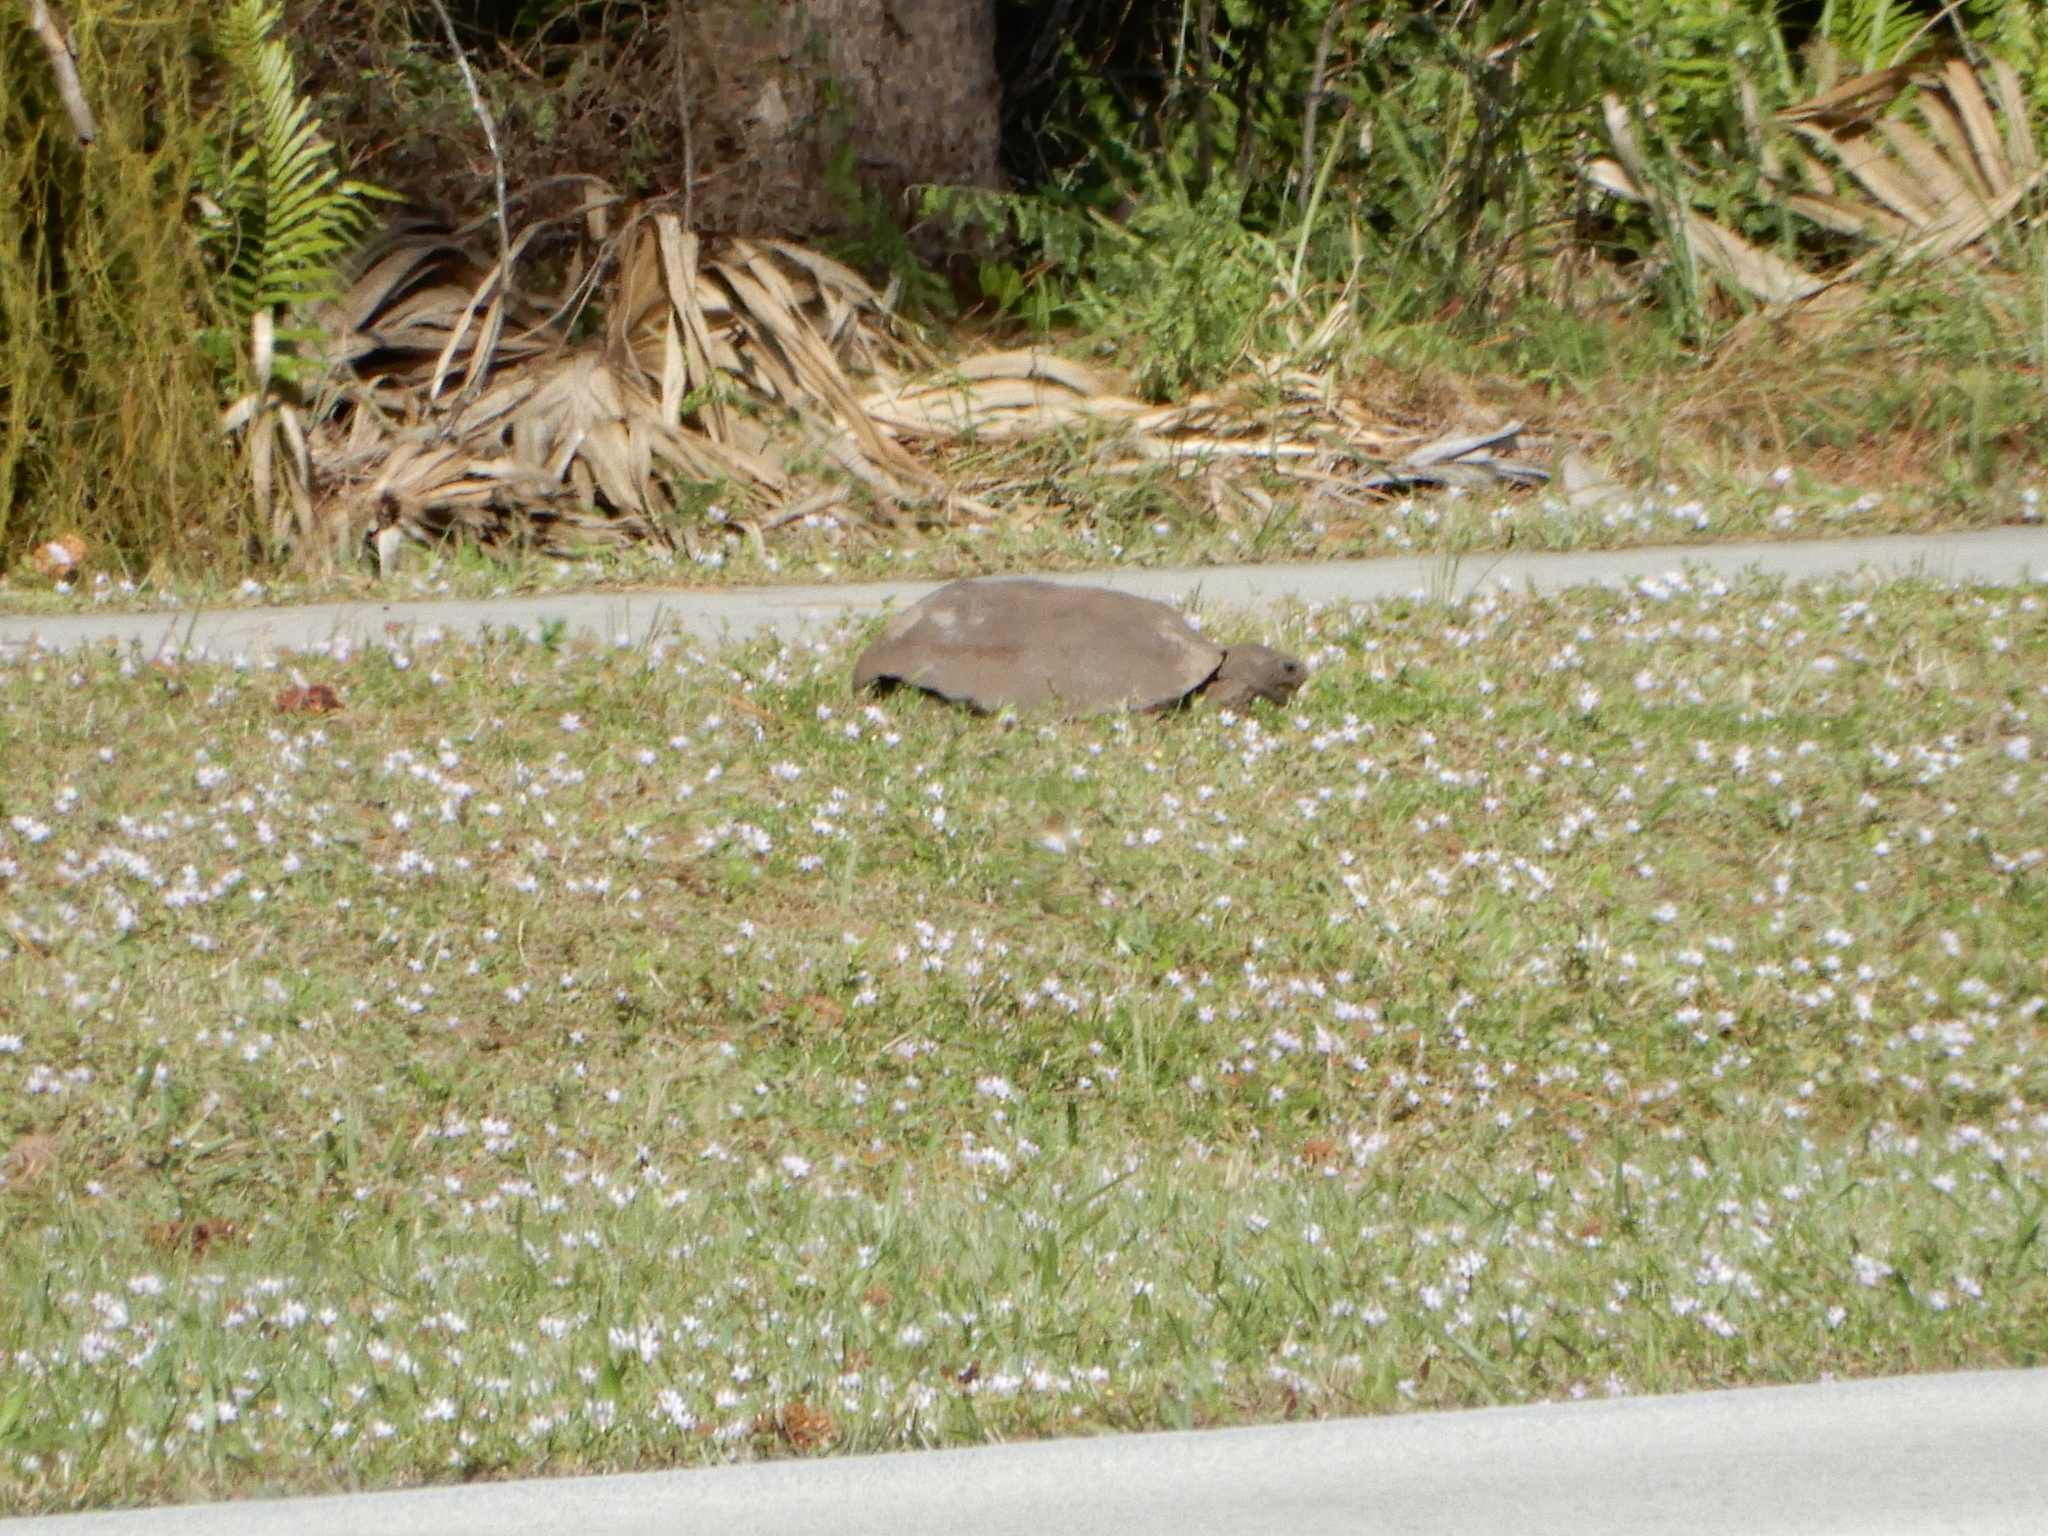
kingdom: Animalia
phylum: Chordata
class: Testudines
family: Testudinidae
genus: Gopherus
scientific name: Gopherus polyphemus
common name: Florida gopher tortoise
